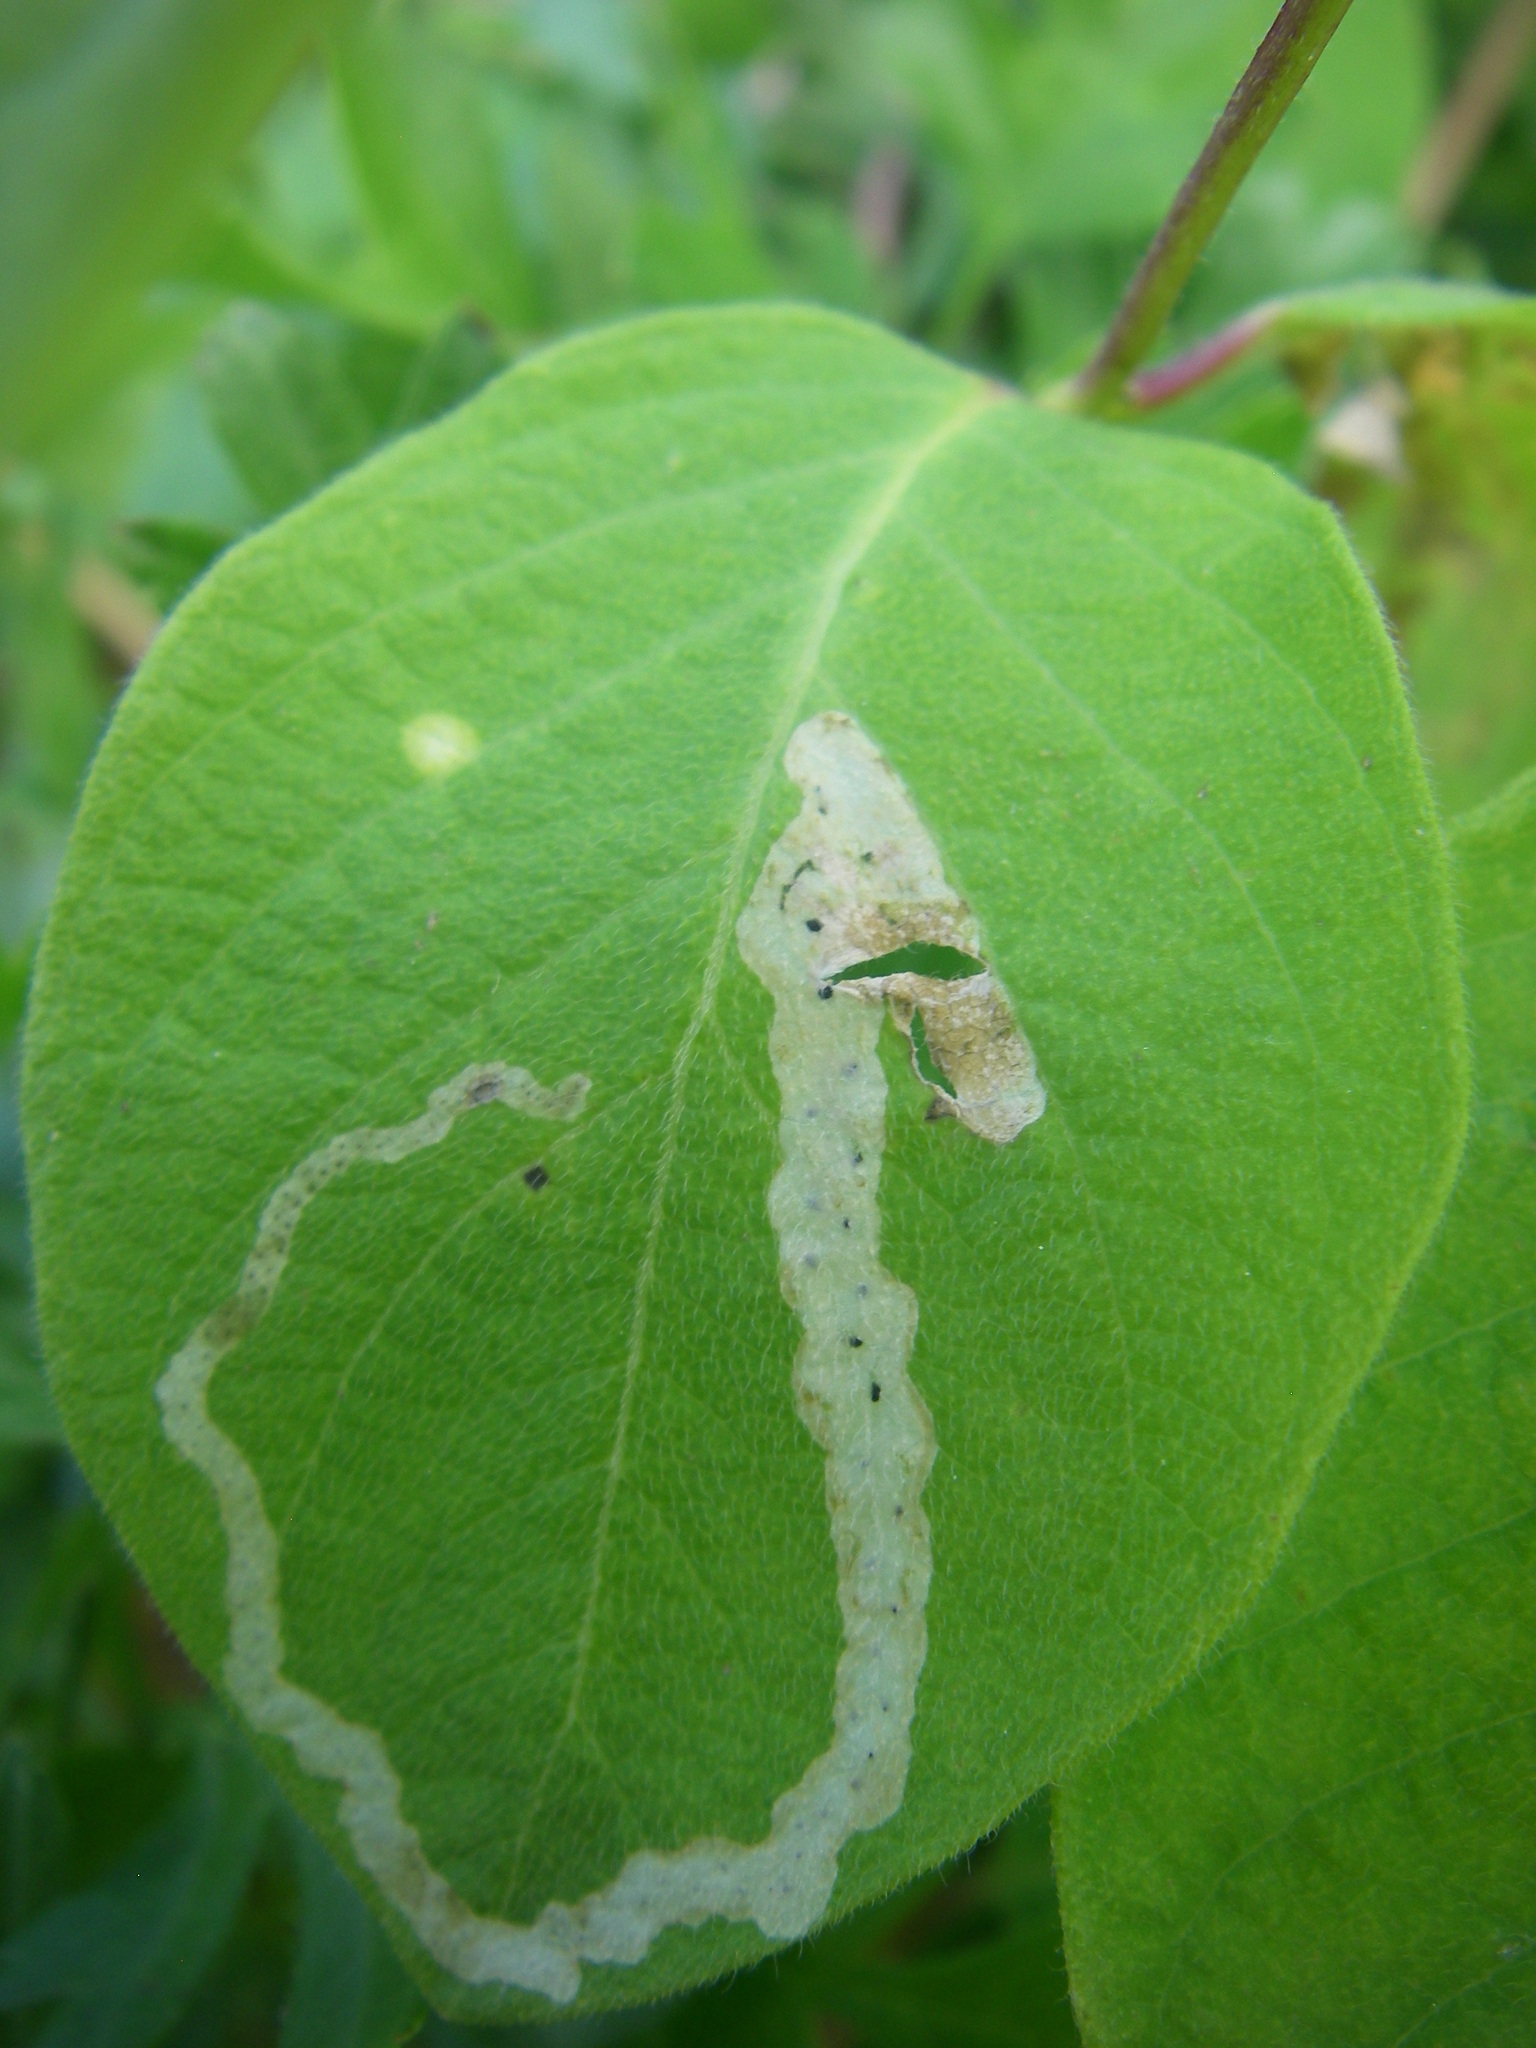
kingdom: Plantae
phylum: Tracheophyta
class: Magnoliopsida
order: Dipsacales
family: Caprifoliaceae
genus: Lonicera
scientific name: Lonicera xylosteum
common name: Fly honeysuckle
